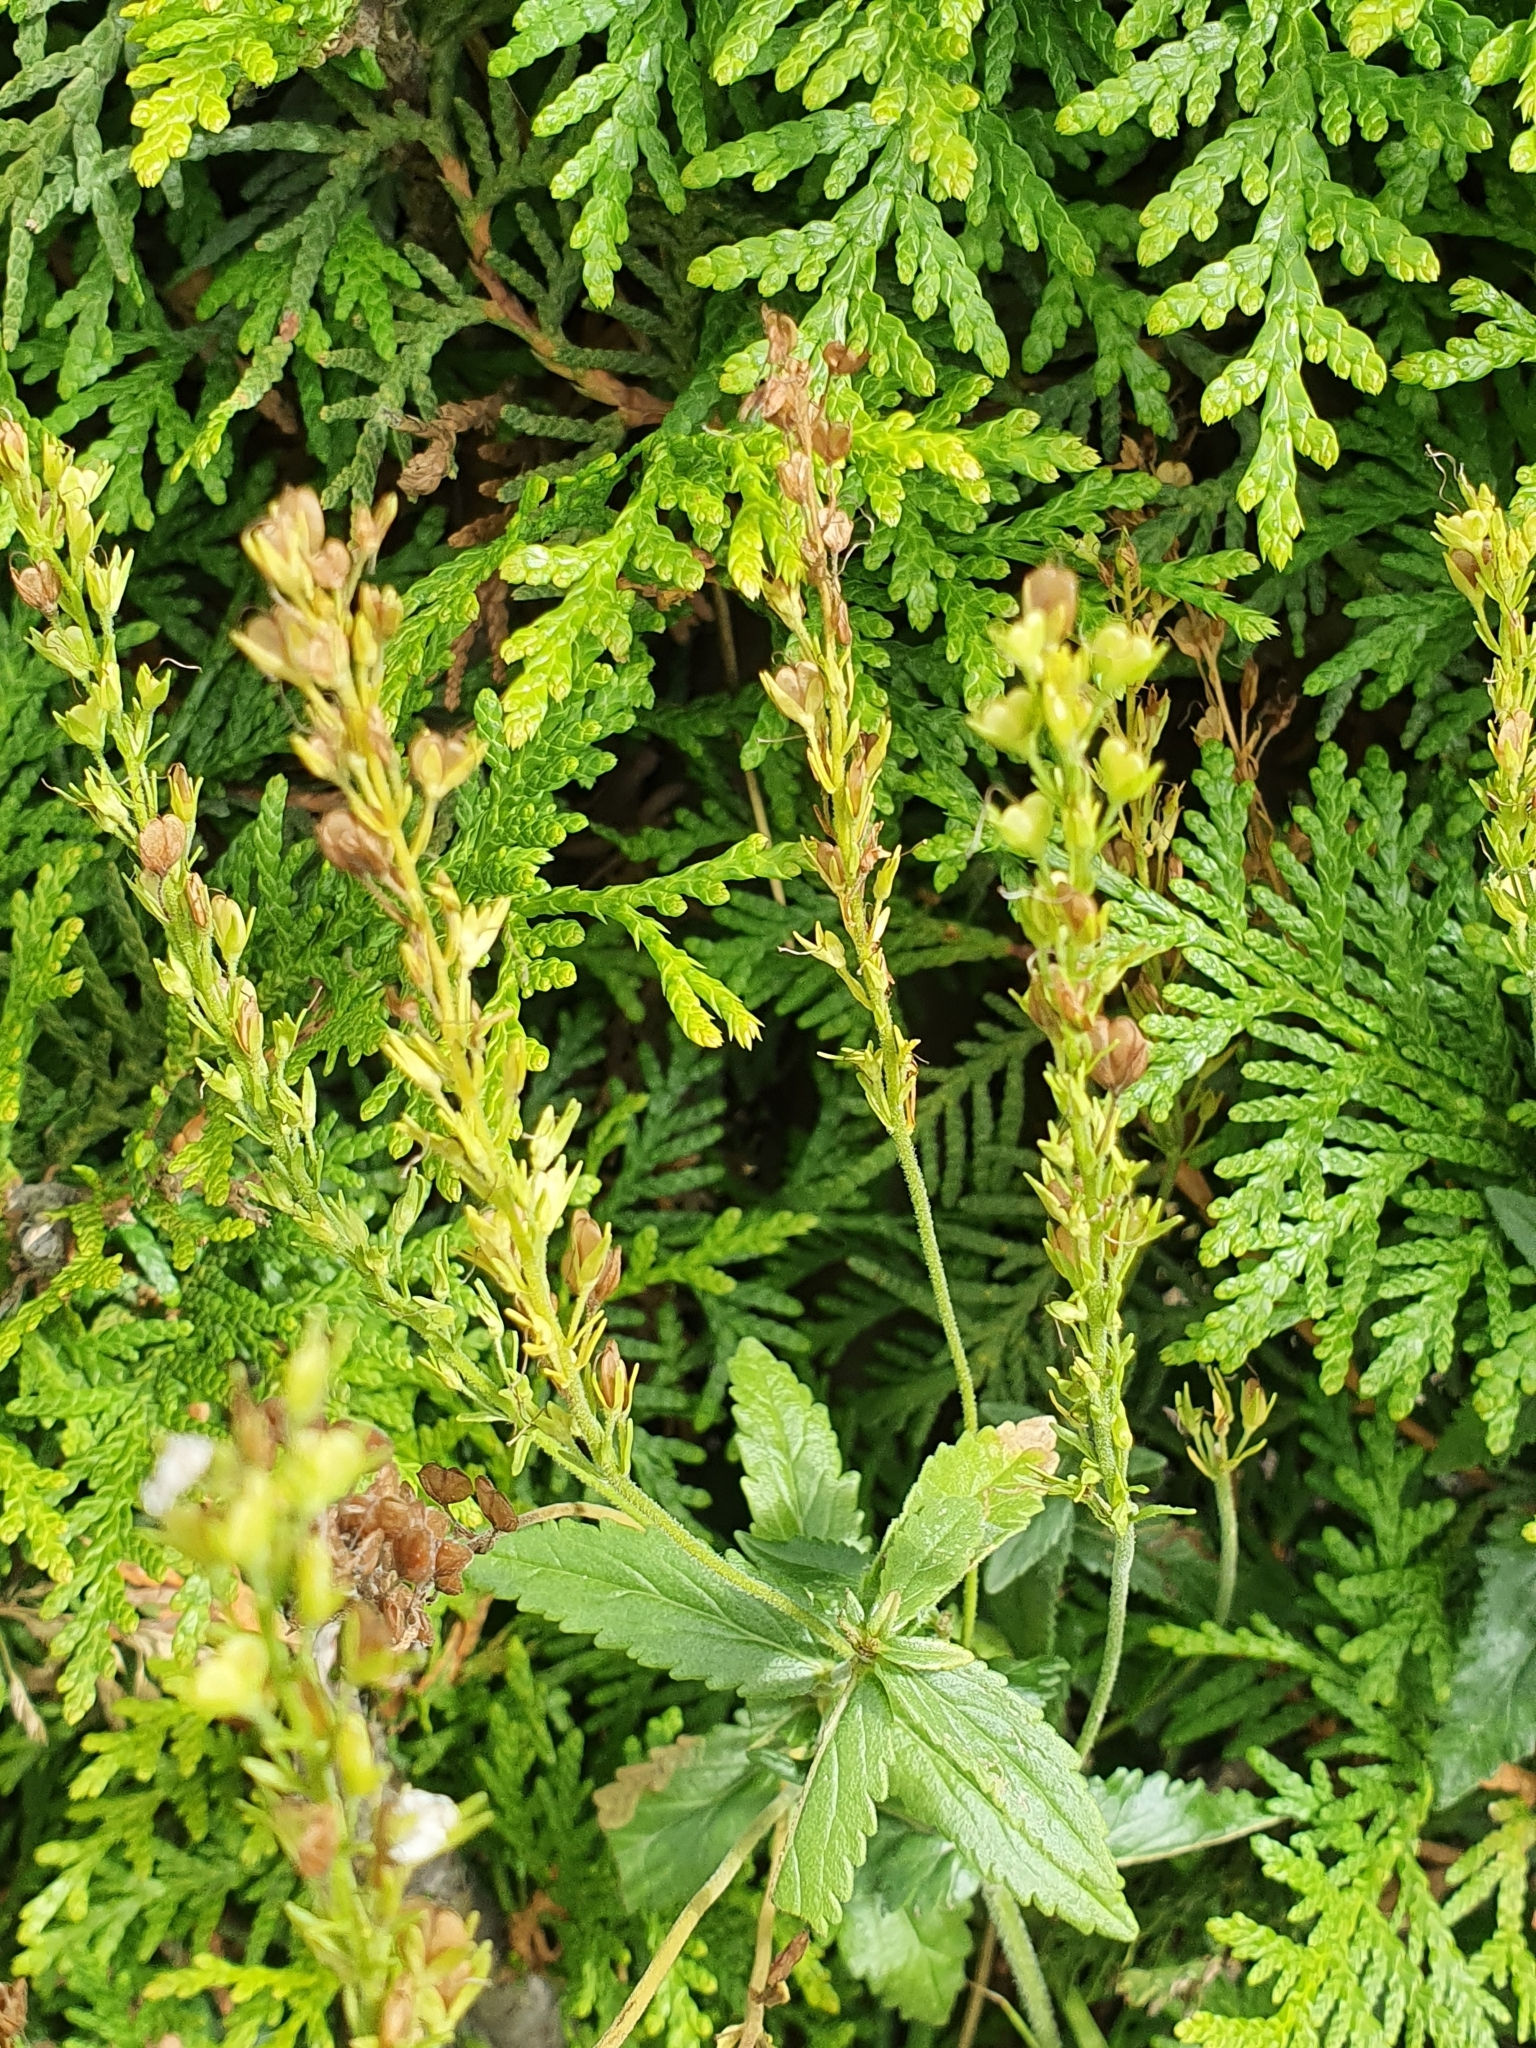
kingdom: Plantae
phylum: Tracheophyta
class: Magnoliopsida
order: Lamiales
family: Plantaginaceae
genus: Veronica
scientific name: Veronica teucrium
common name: Large speedwell
